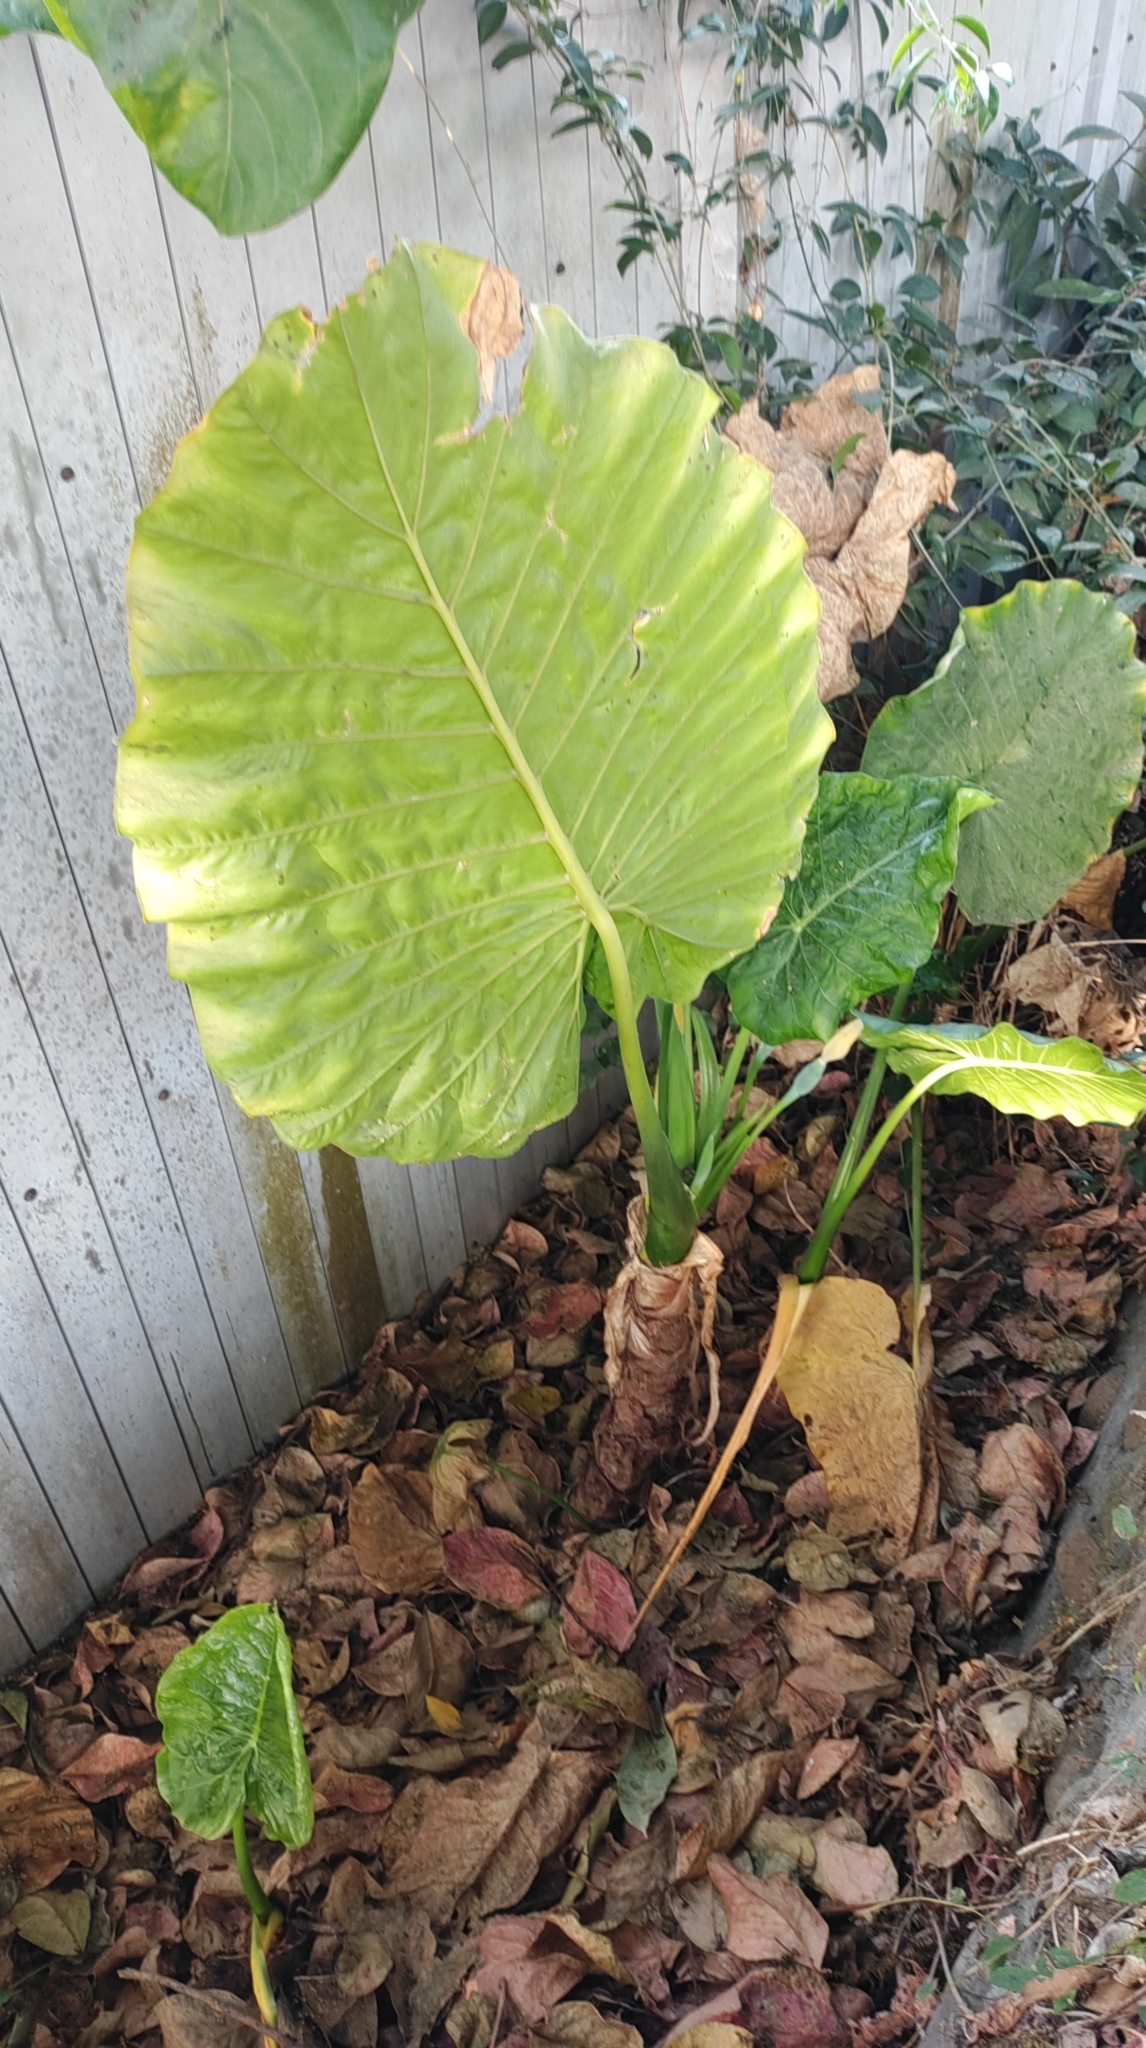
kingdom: Plantae
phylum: Tracheophyta
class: Liliopsida
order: Alismatales
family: Araceae
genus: Alocasia
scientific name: Alocasia odora
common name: Asian taro
